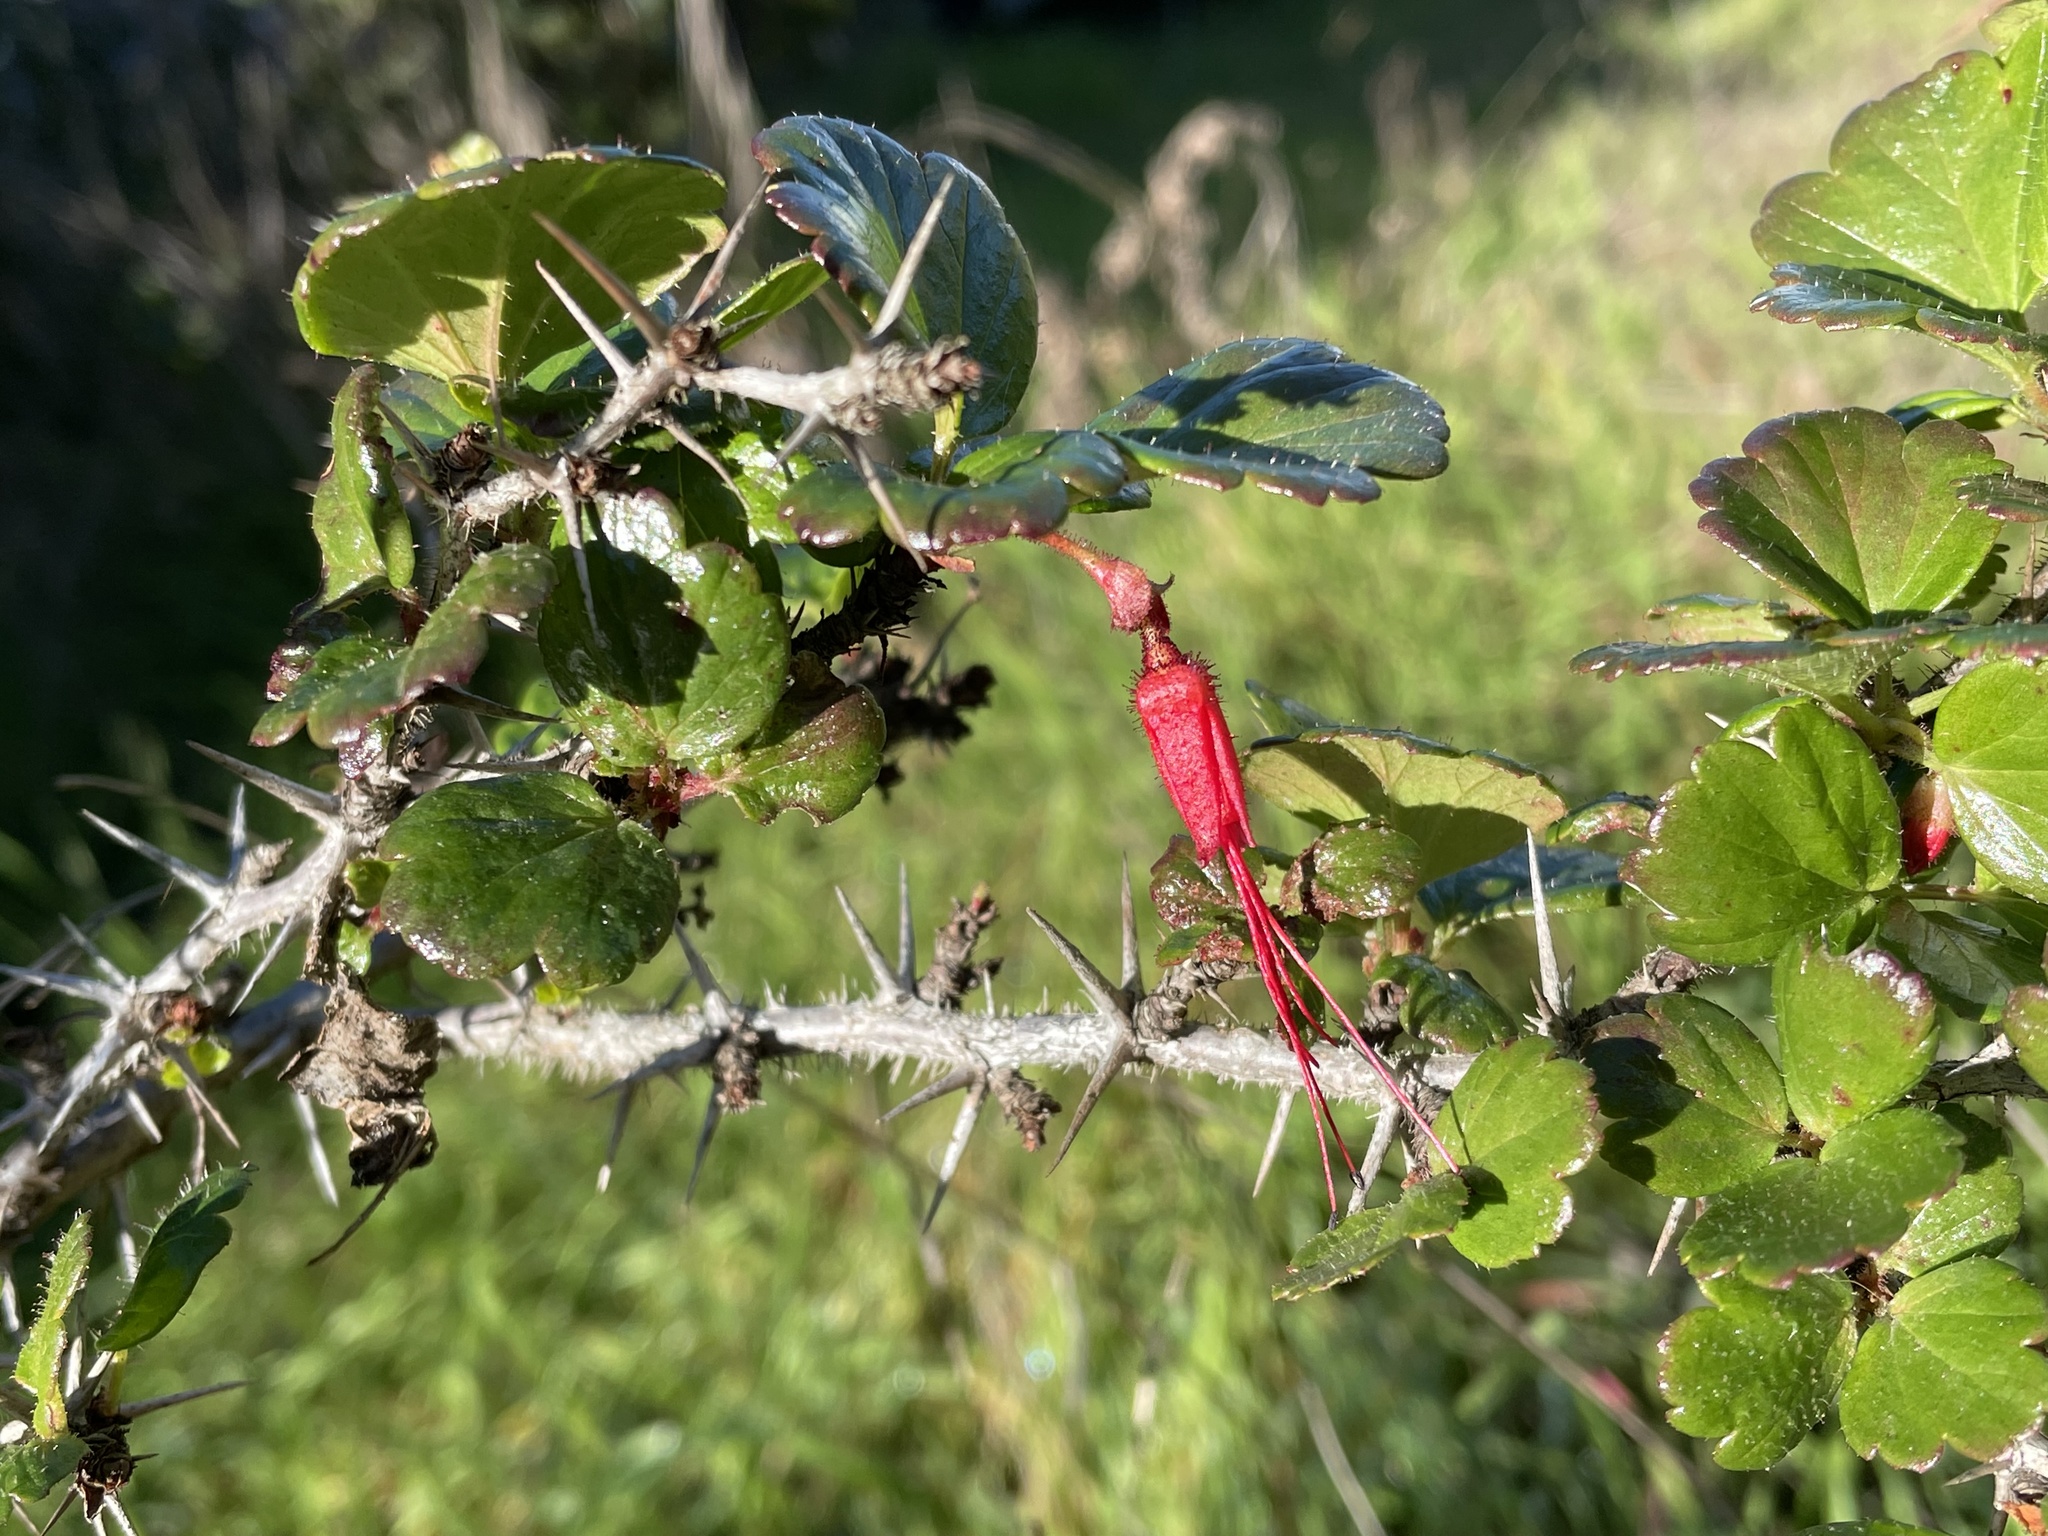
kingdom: Plantae
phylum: Tracheophyta
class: Magnoliopsida
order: Saxifragales
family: Grossulariaceae
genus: Ribes
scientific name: Ribes speciosum
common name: Fuchsia-flower gooseberry
